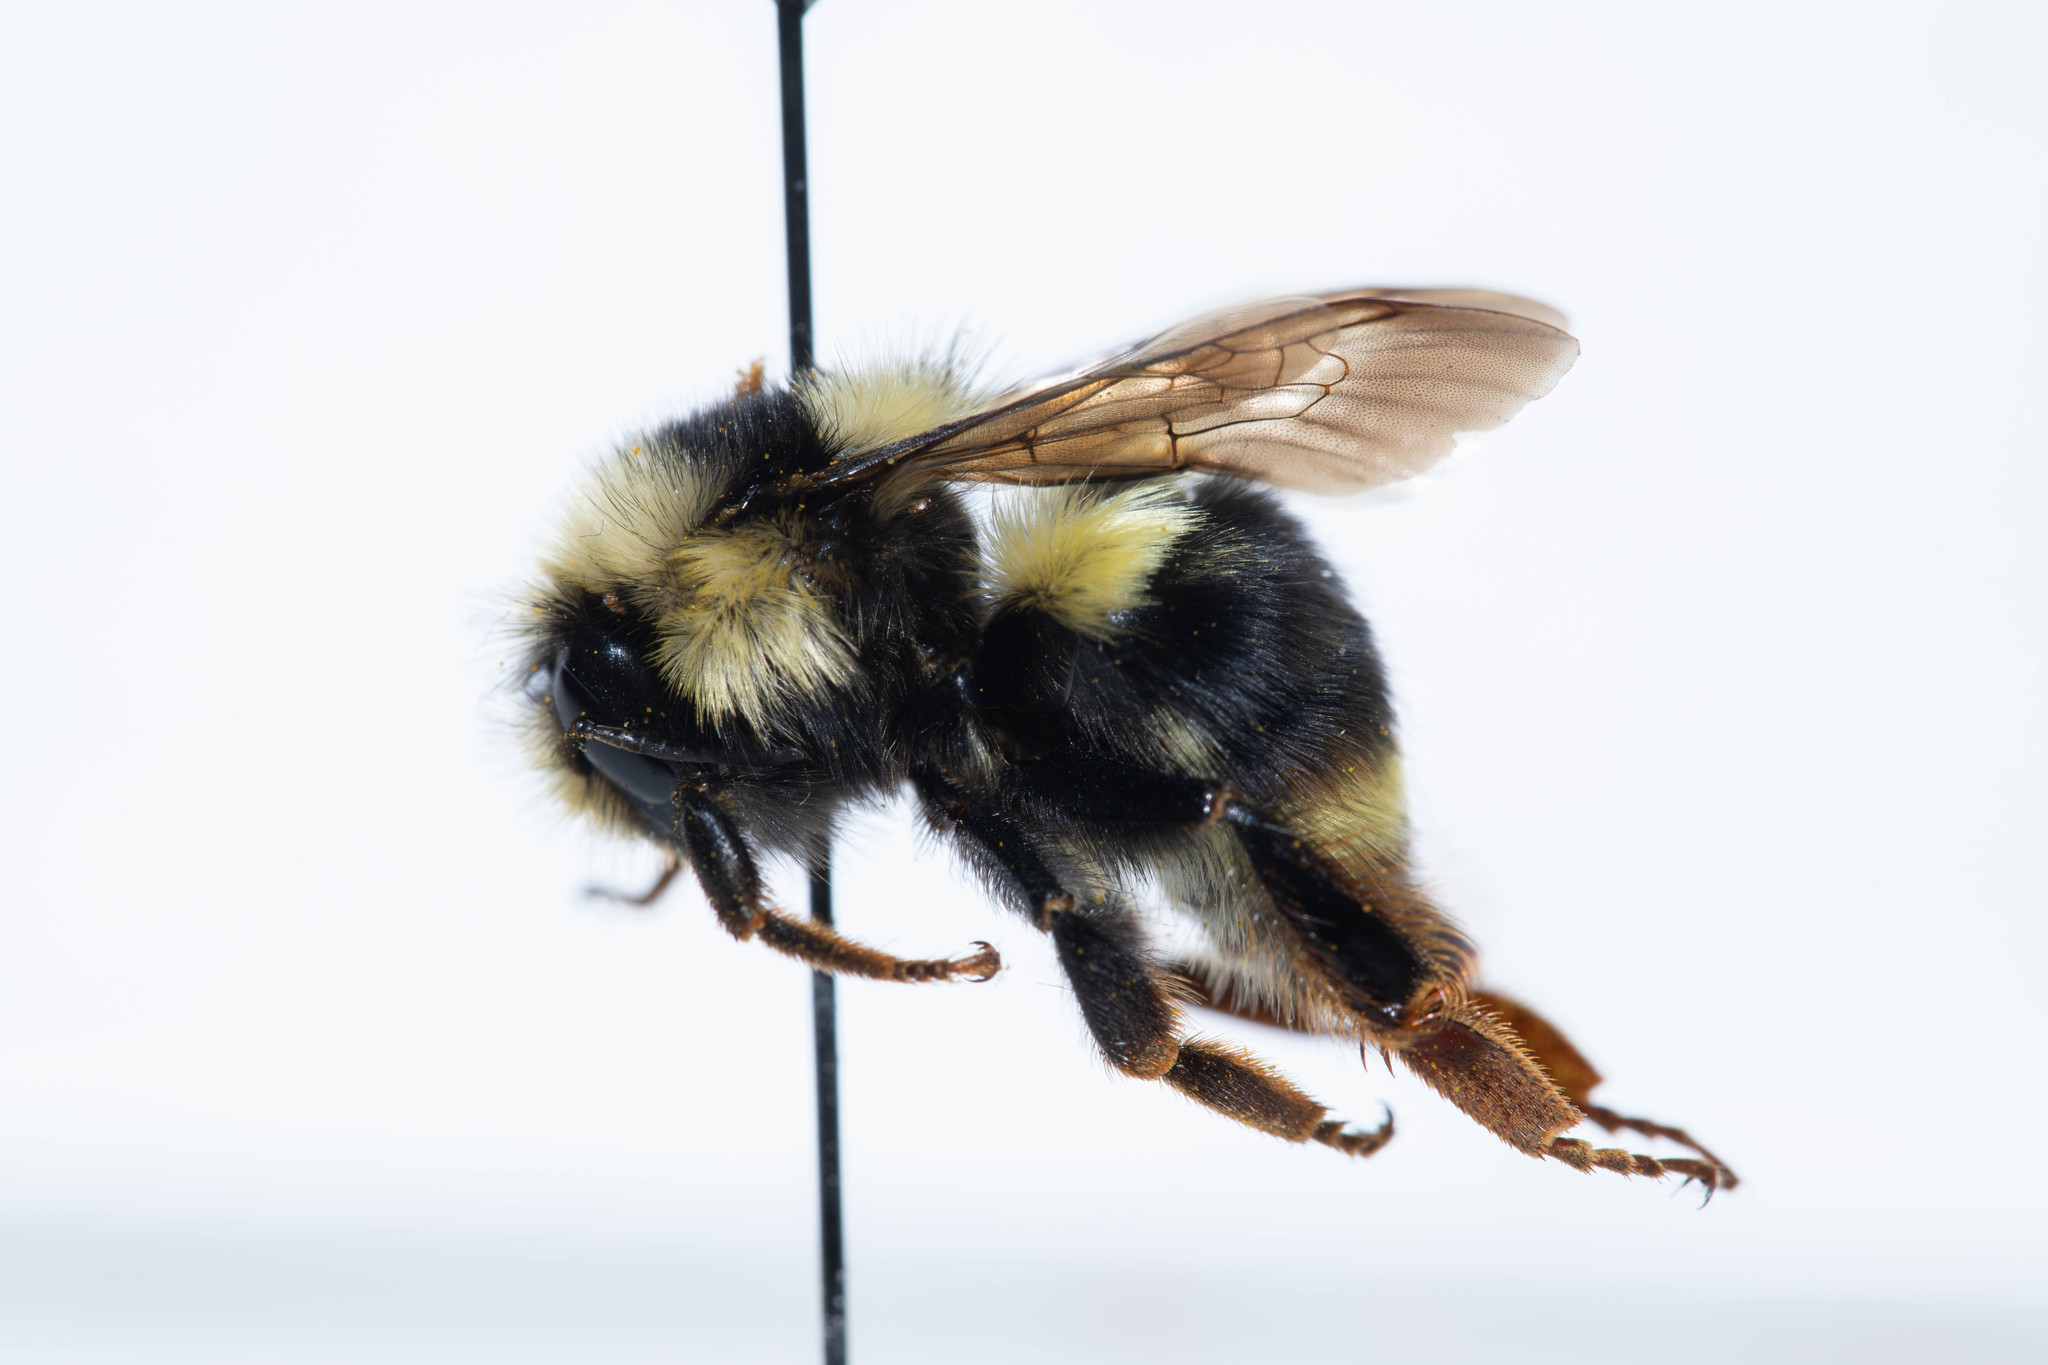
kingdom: Animalia
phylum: Arthropoda
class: Insecta
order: Hymenoptera
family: Apidae
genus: Bombus
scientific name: Bombus vancouverensis
